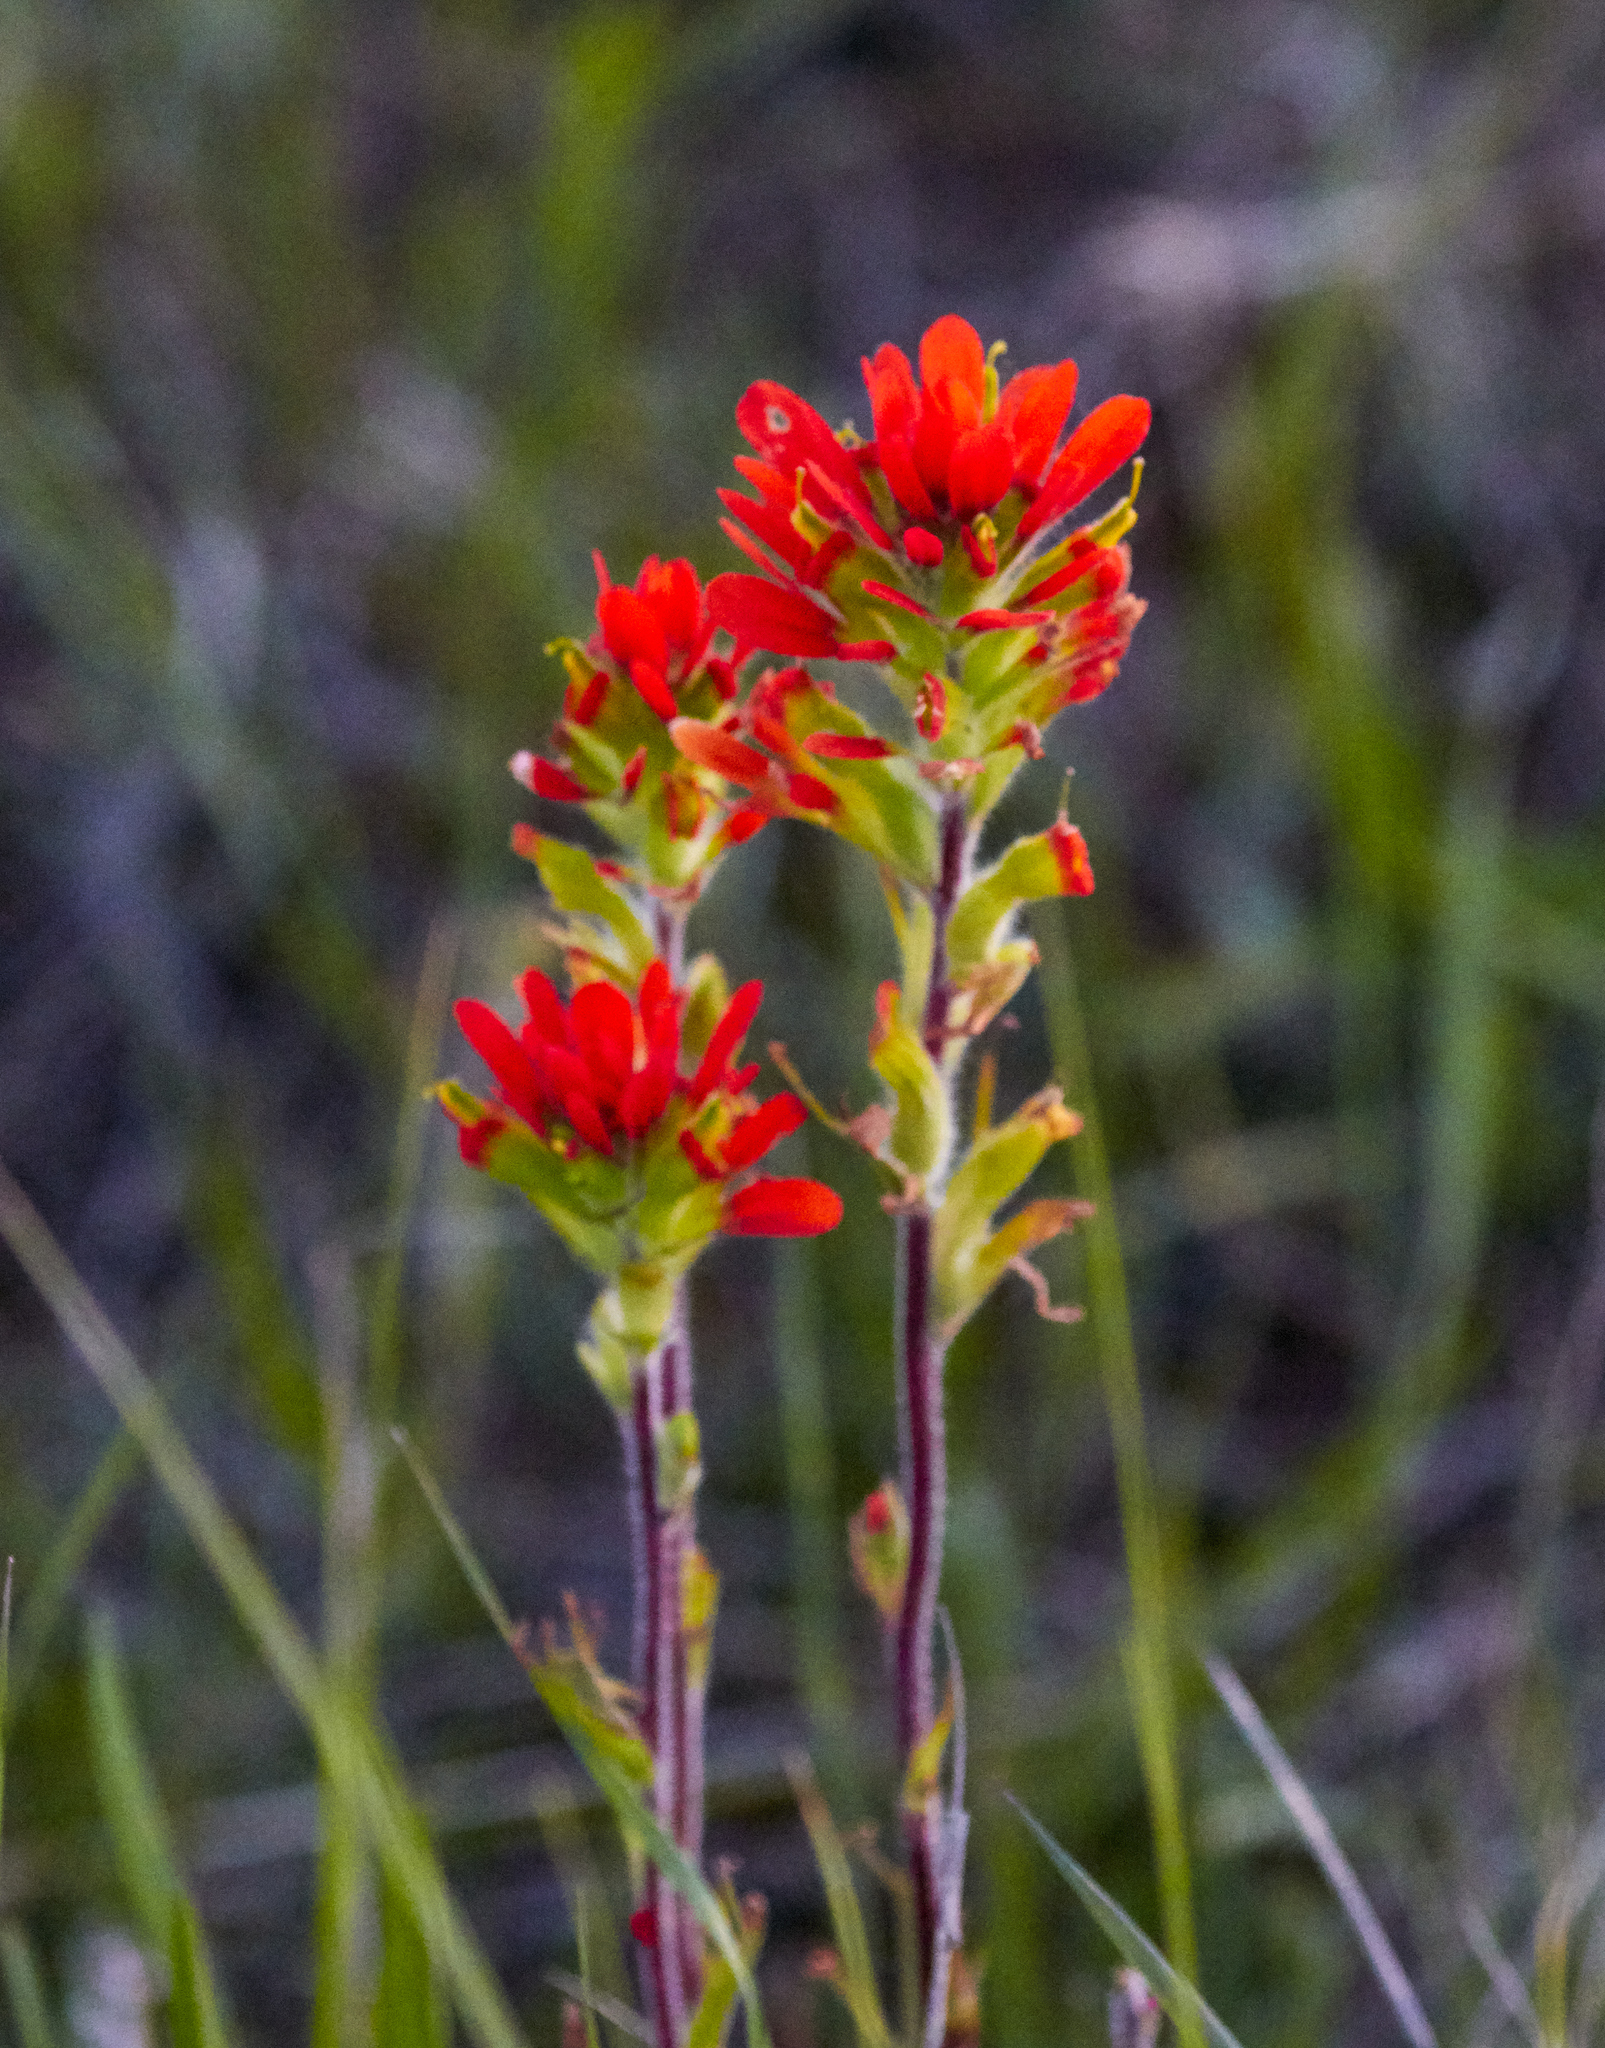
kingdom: Plantae
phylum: Tracheophyta
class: Magnoliopsida
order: Lamiales
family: Orobanchaceae
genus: Castilleja
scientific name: Castilleja coccinea
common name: Scarlet paintbrush
